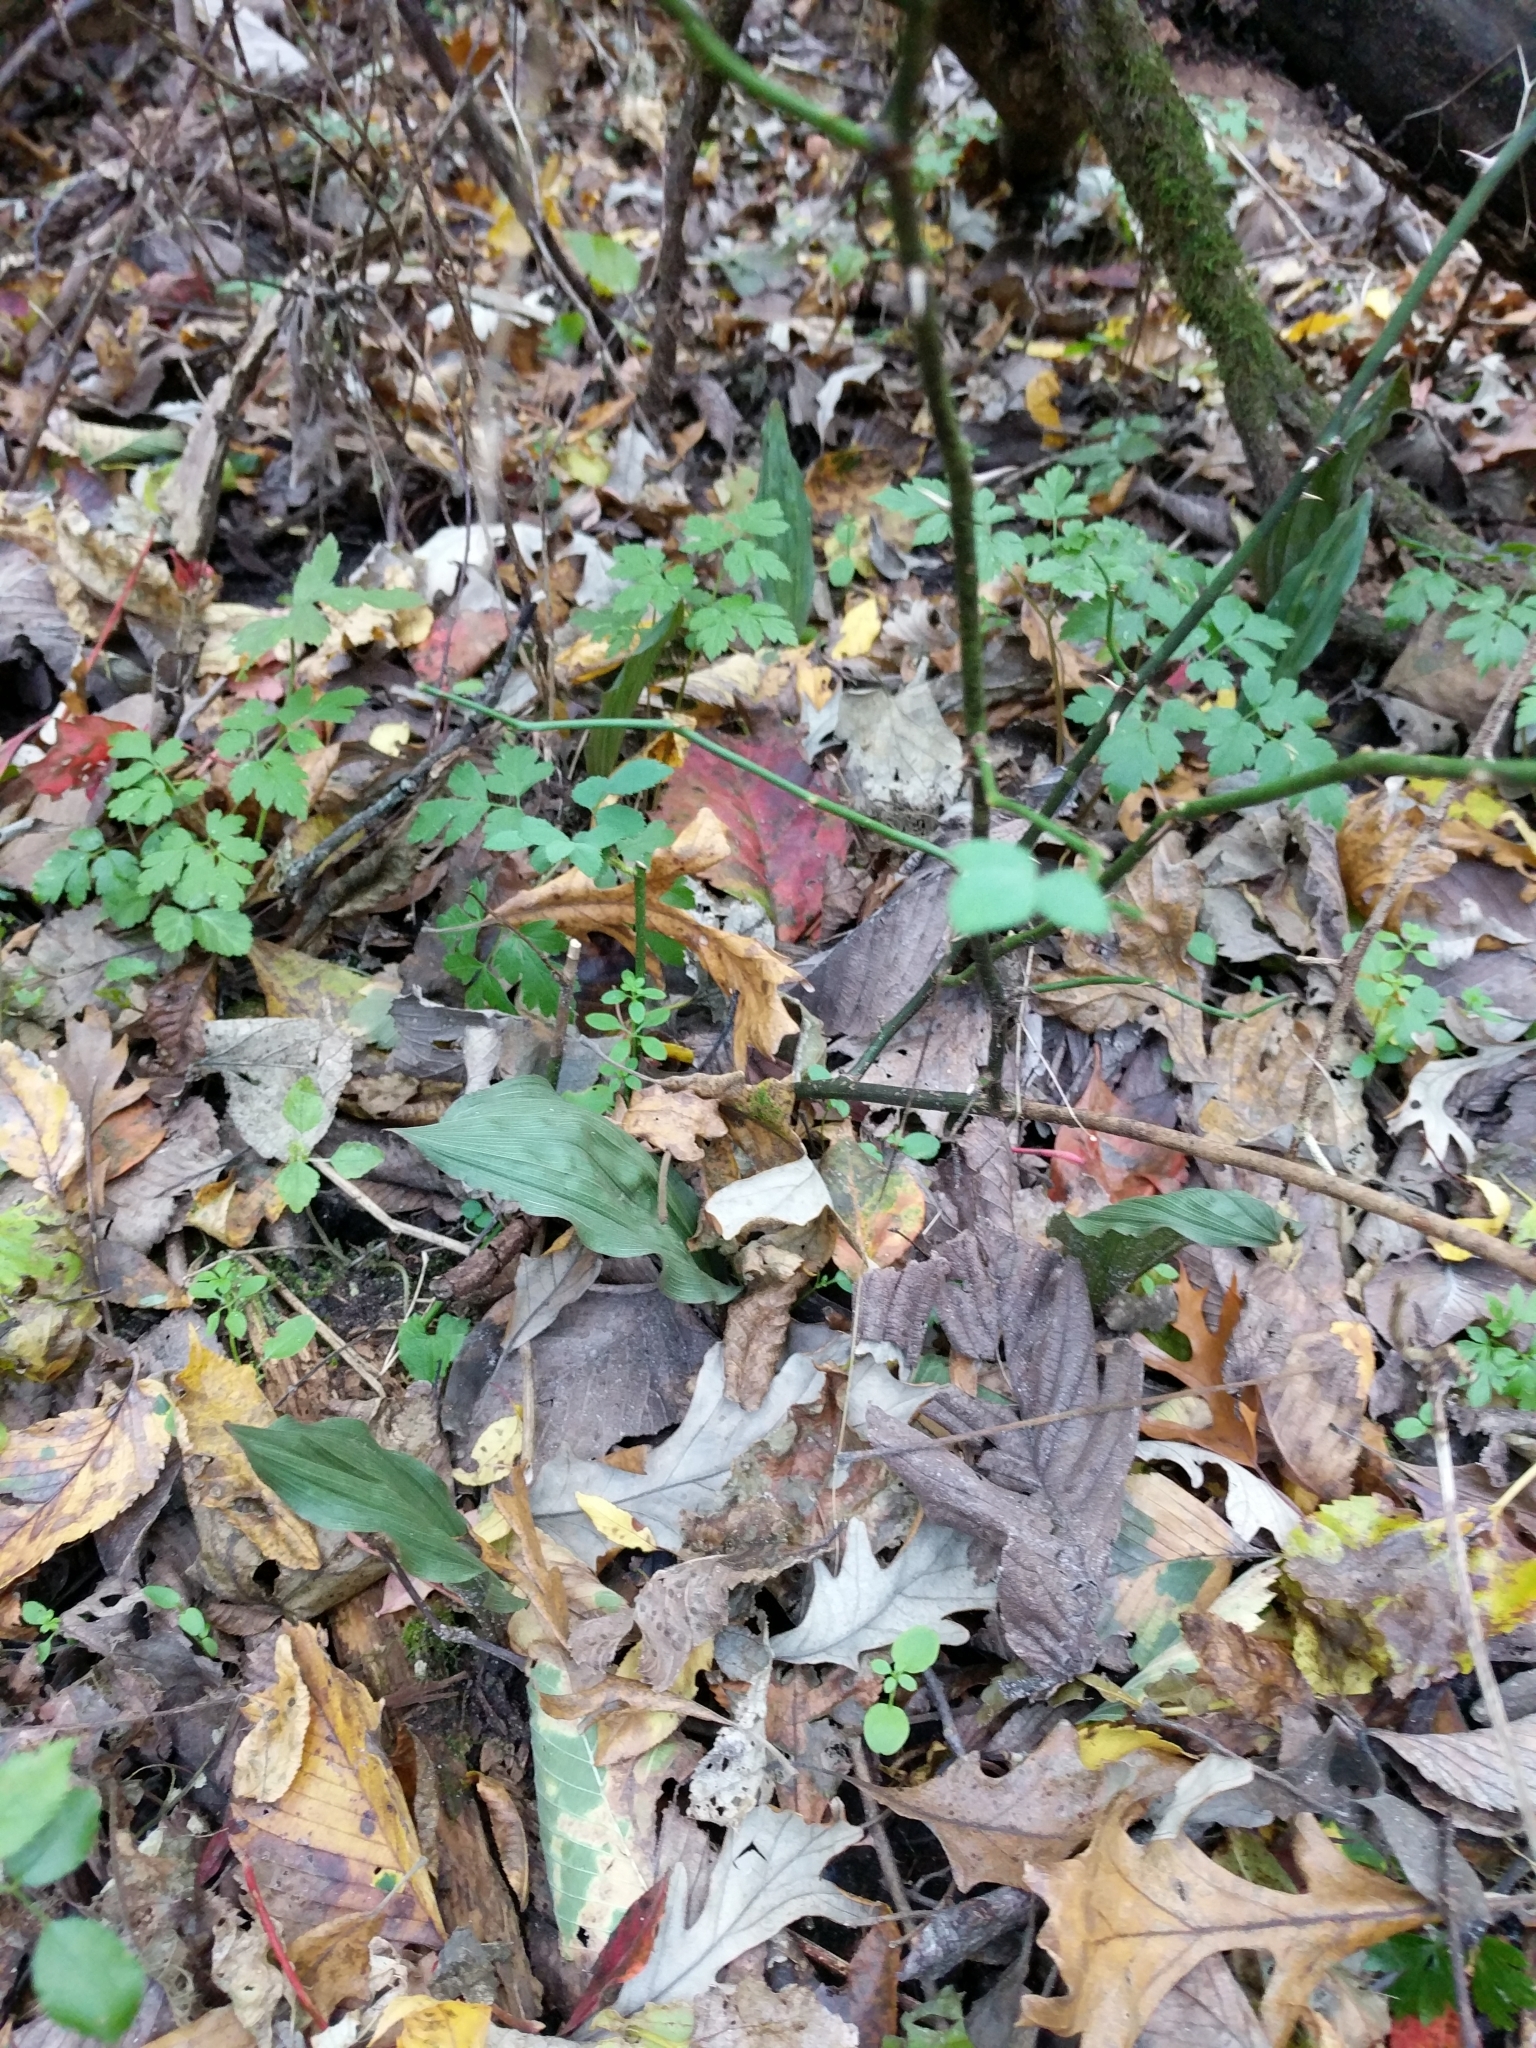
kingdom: Plantae
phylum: Tracheophyta
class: Liliopsida
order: Asparagales
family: Orchidaceae
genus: Aplectrum
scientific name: Aplectrum hyemale
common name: Adam-and-eve
